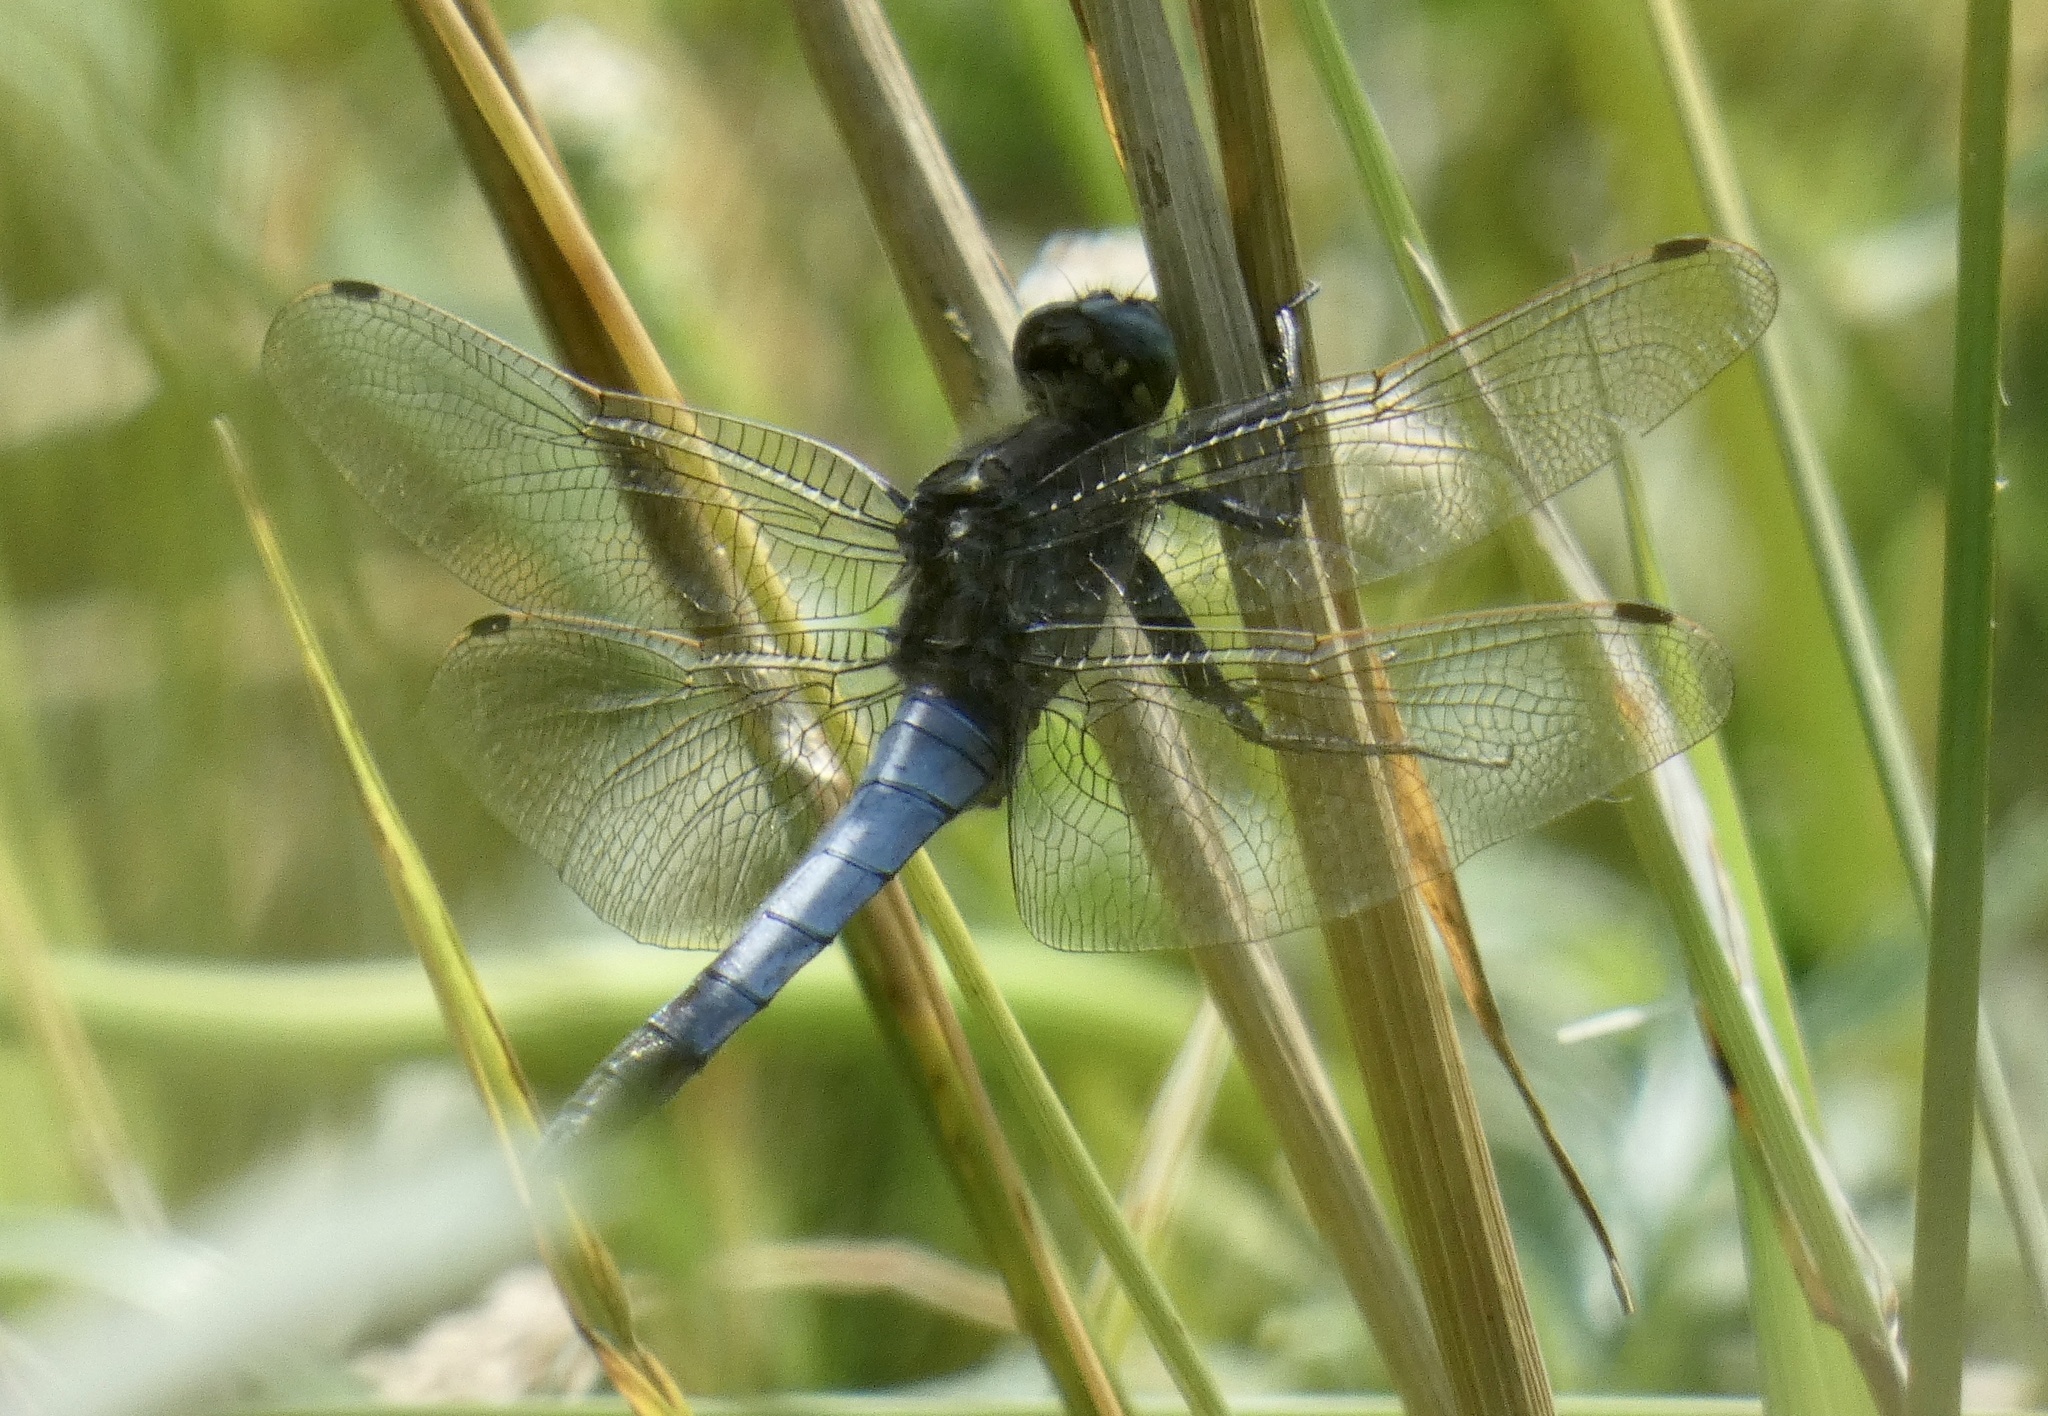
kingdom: Animalia
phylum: Arthropoda
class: Insecta
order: Odonata
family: Libellulidae
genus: Orthetrum
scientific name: Orthetrum cancellatum
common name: Black-tailed skimmer
